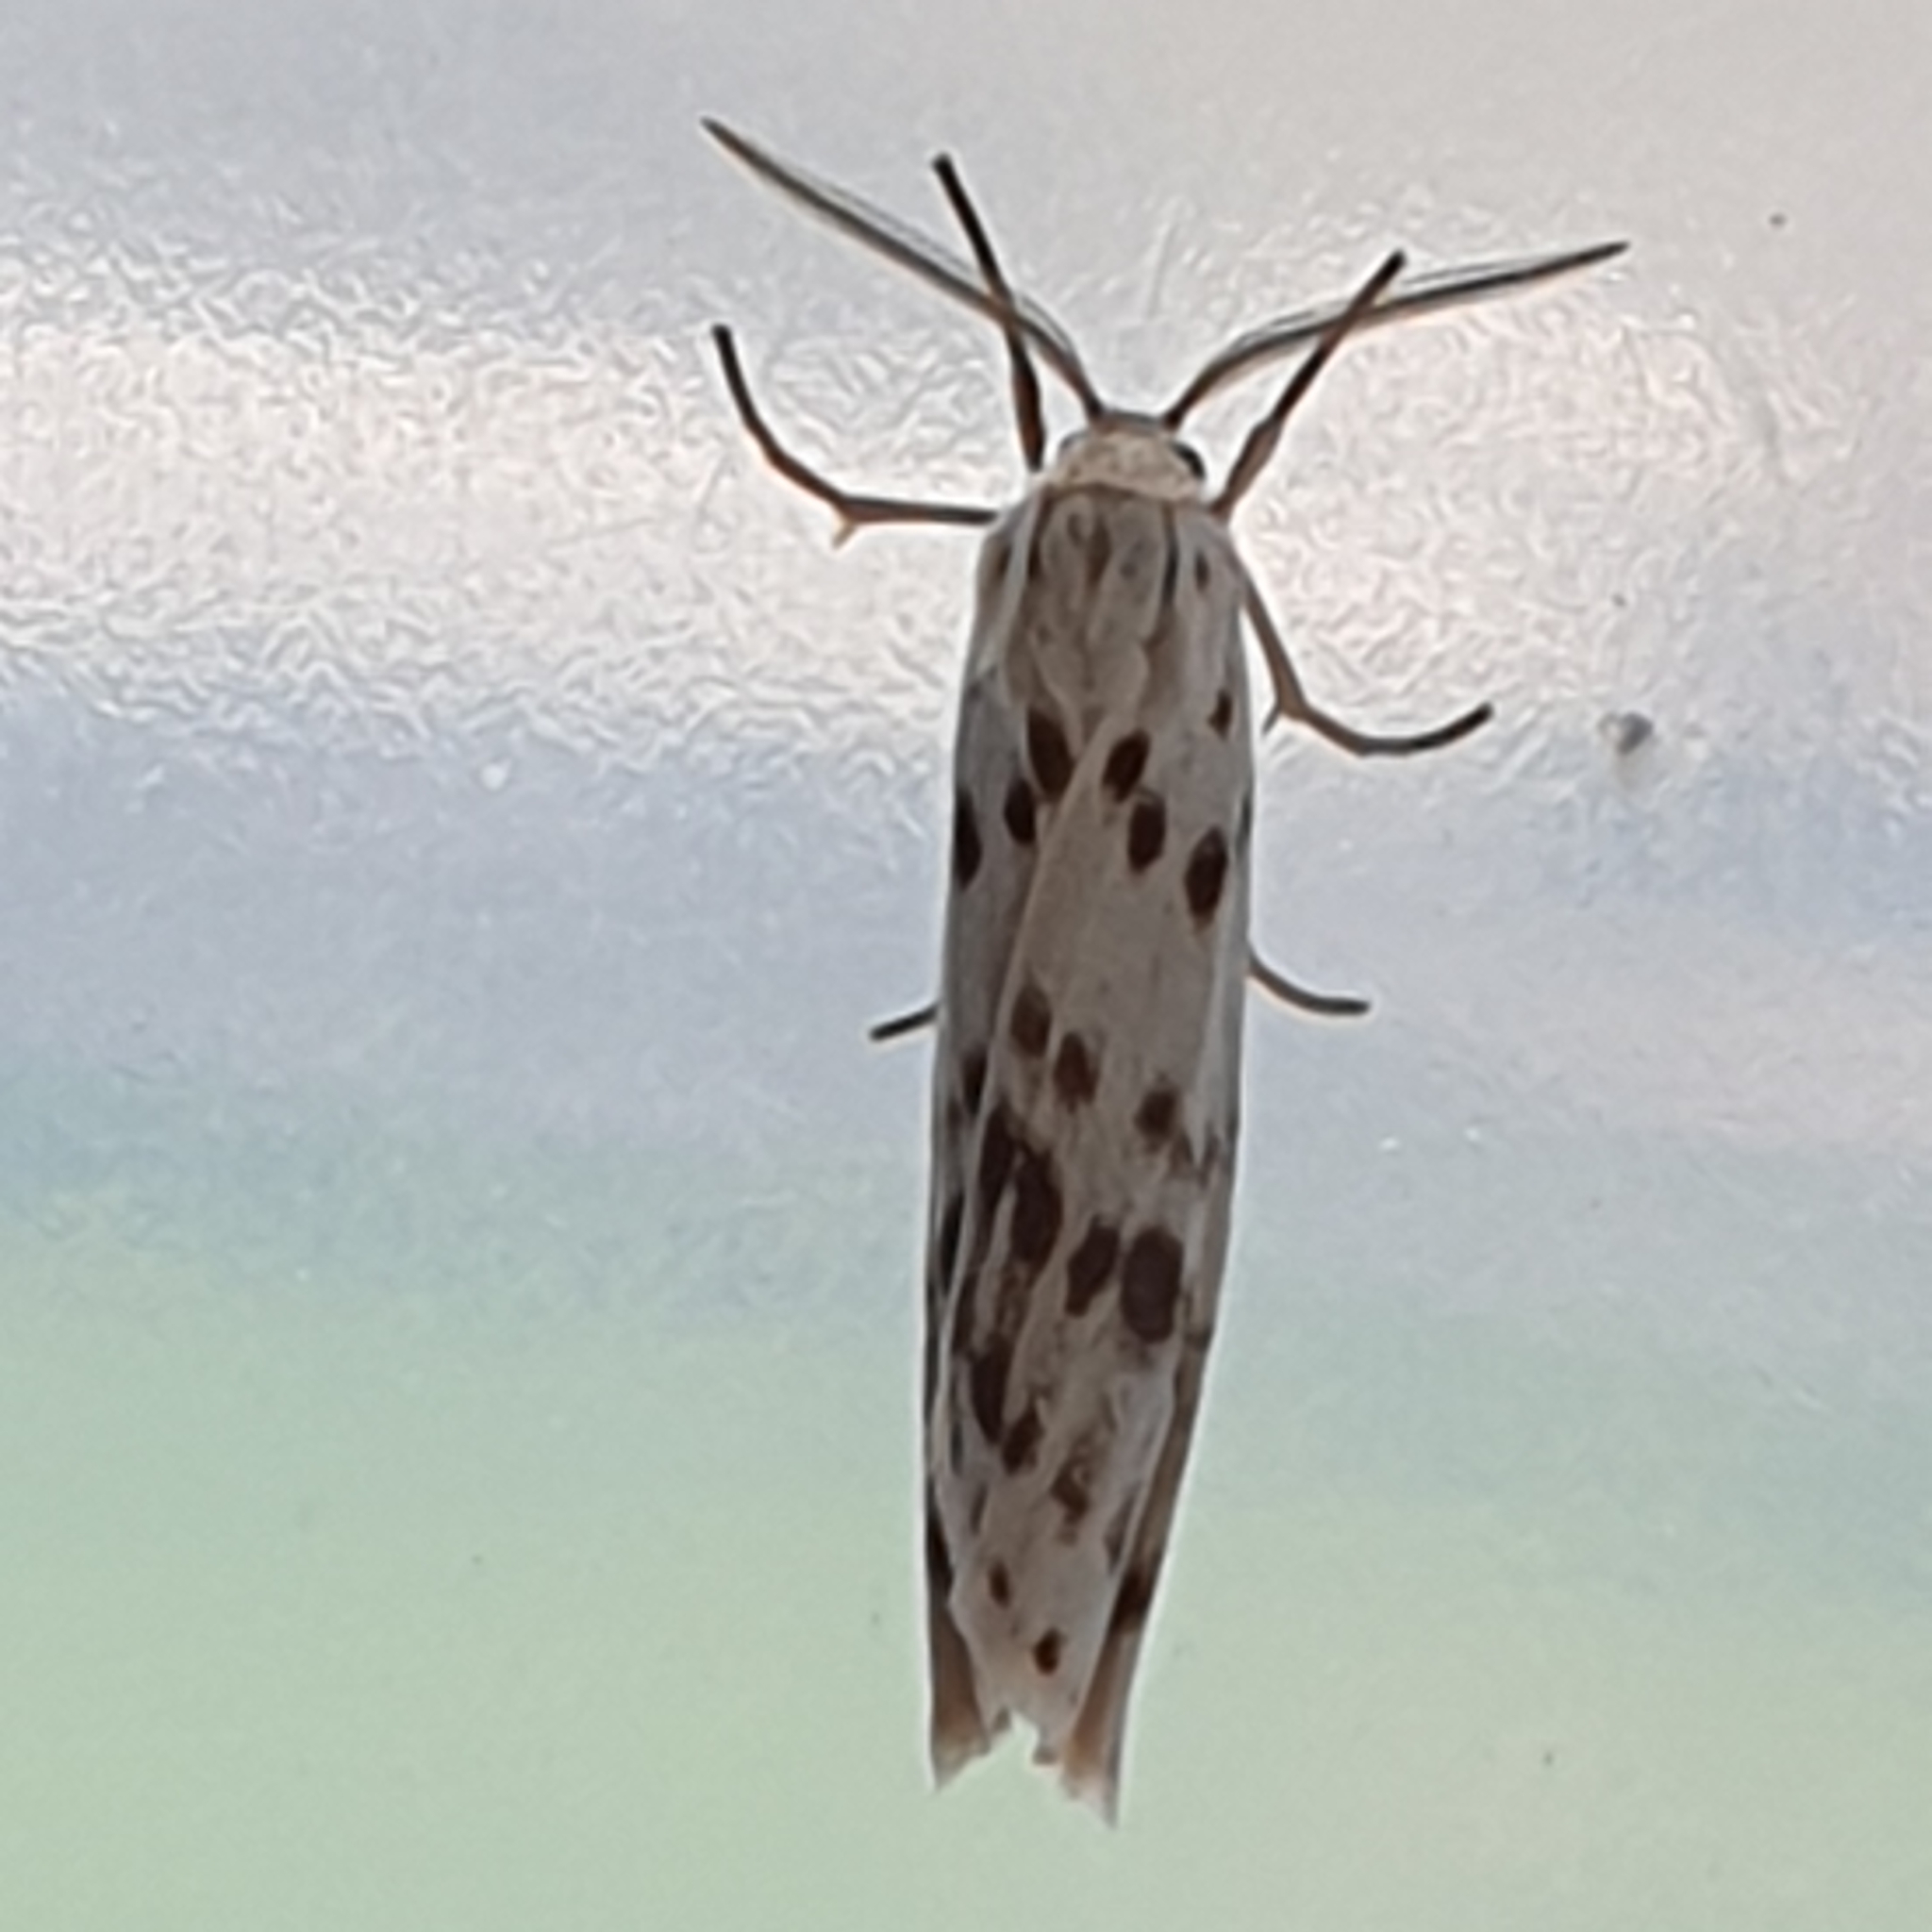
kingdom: Animalia
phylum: Arthropoda
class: Insecta
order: Lepidoptera
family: Erebidae
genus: Coscinia
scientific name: Coscinia cribraria
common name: Speckled footman
